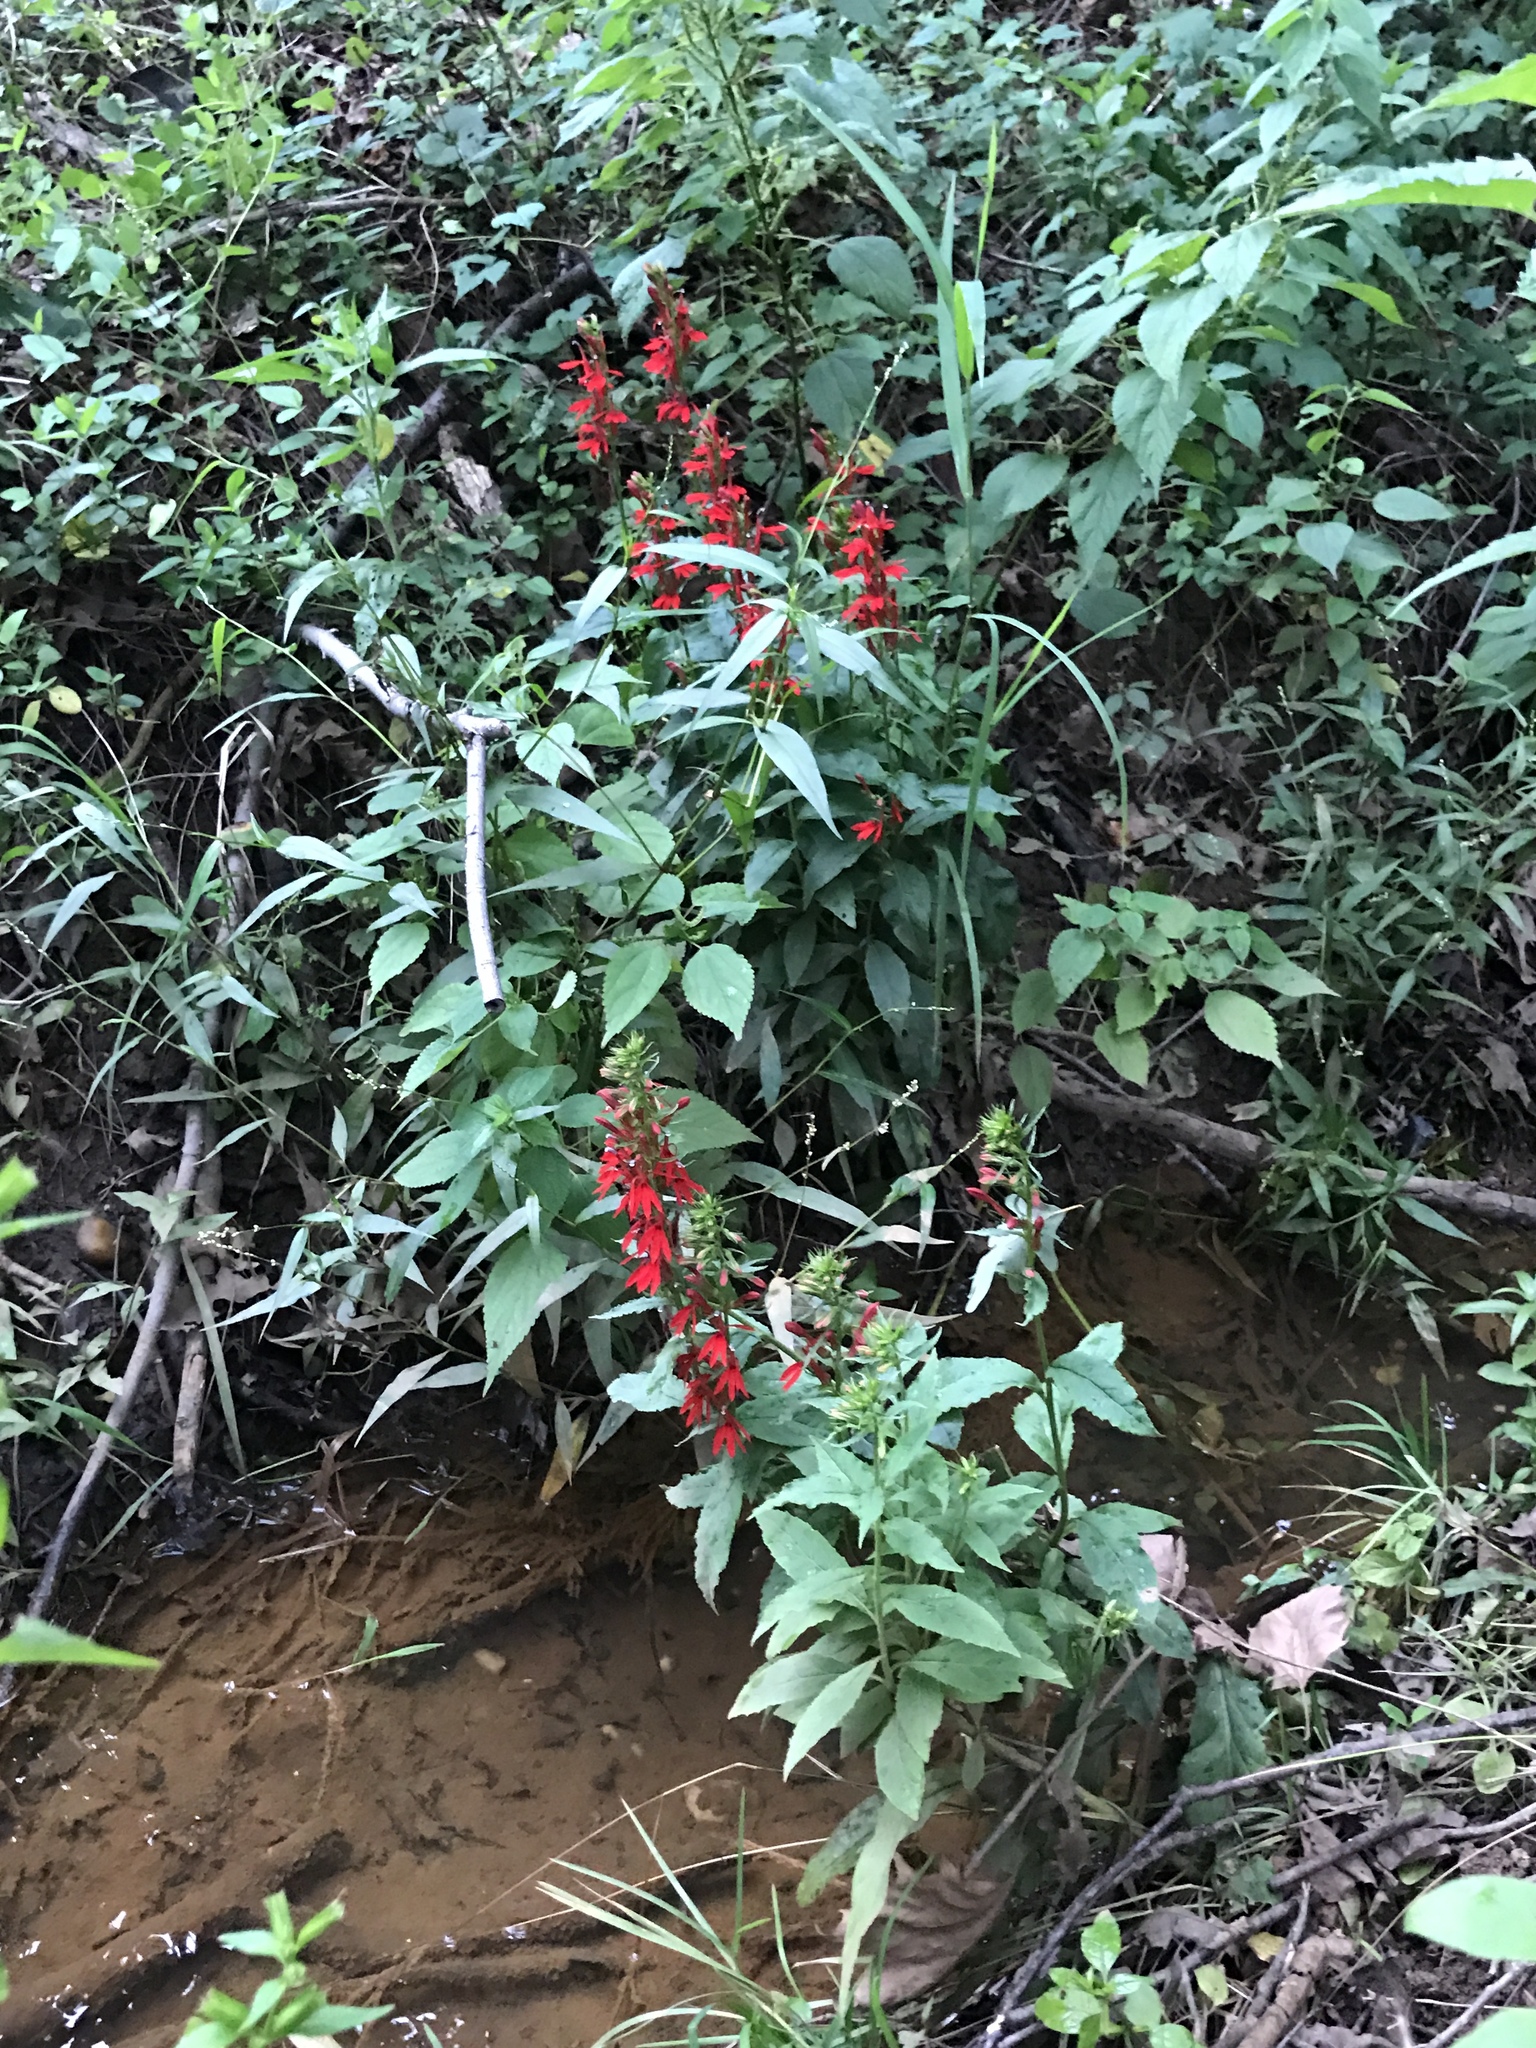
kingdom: Plantae
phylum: Tracheophyta
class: Magnoliopsida
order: Asterales
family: Campanulaceae
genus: Lobelia
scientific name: Lobelia cardinalis
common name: Cardinal flower
